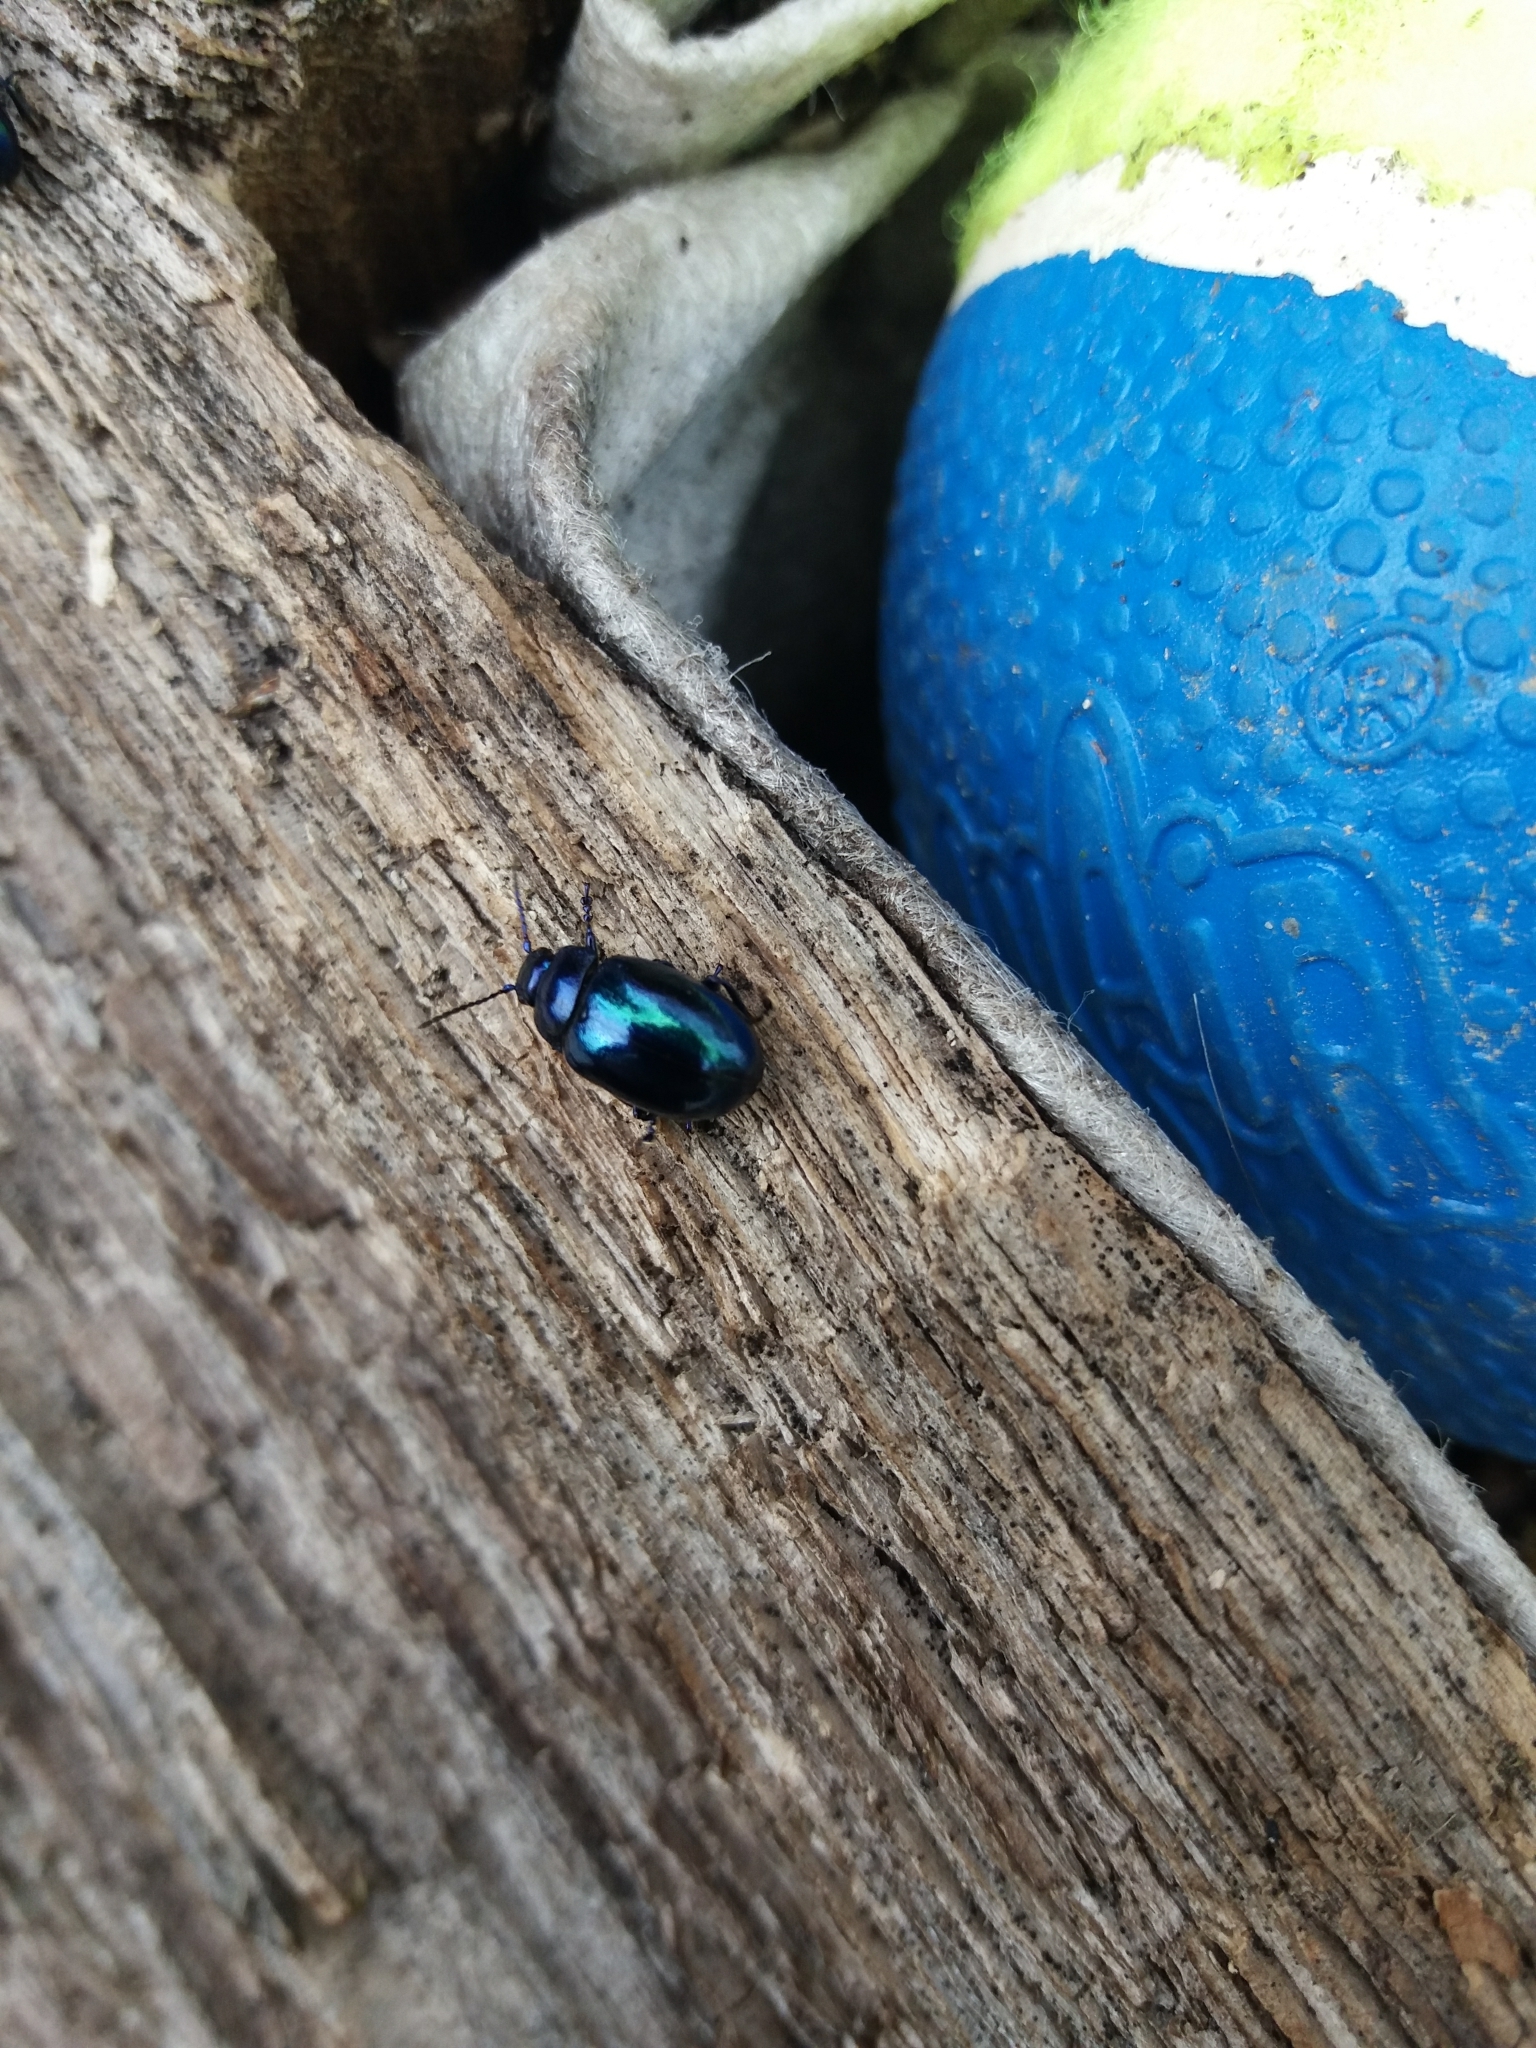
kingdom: Animalia
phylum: Arthropoda
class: Insecta
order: Coleoptera
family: Chrysomelidae
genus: Chrysolina
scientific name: Chrysolina coerulans
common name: Blue mint beetle
